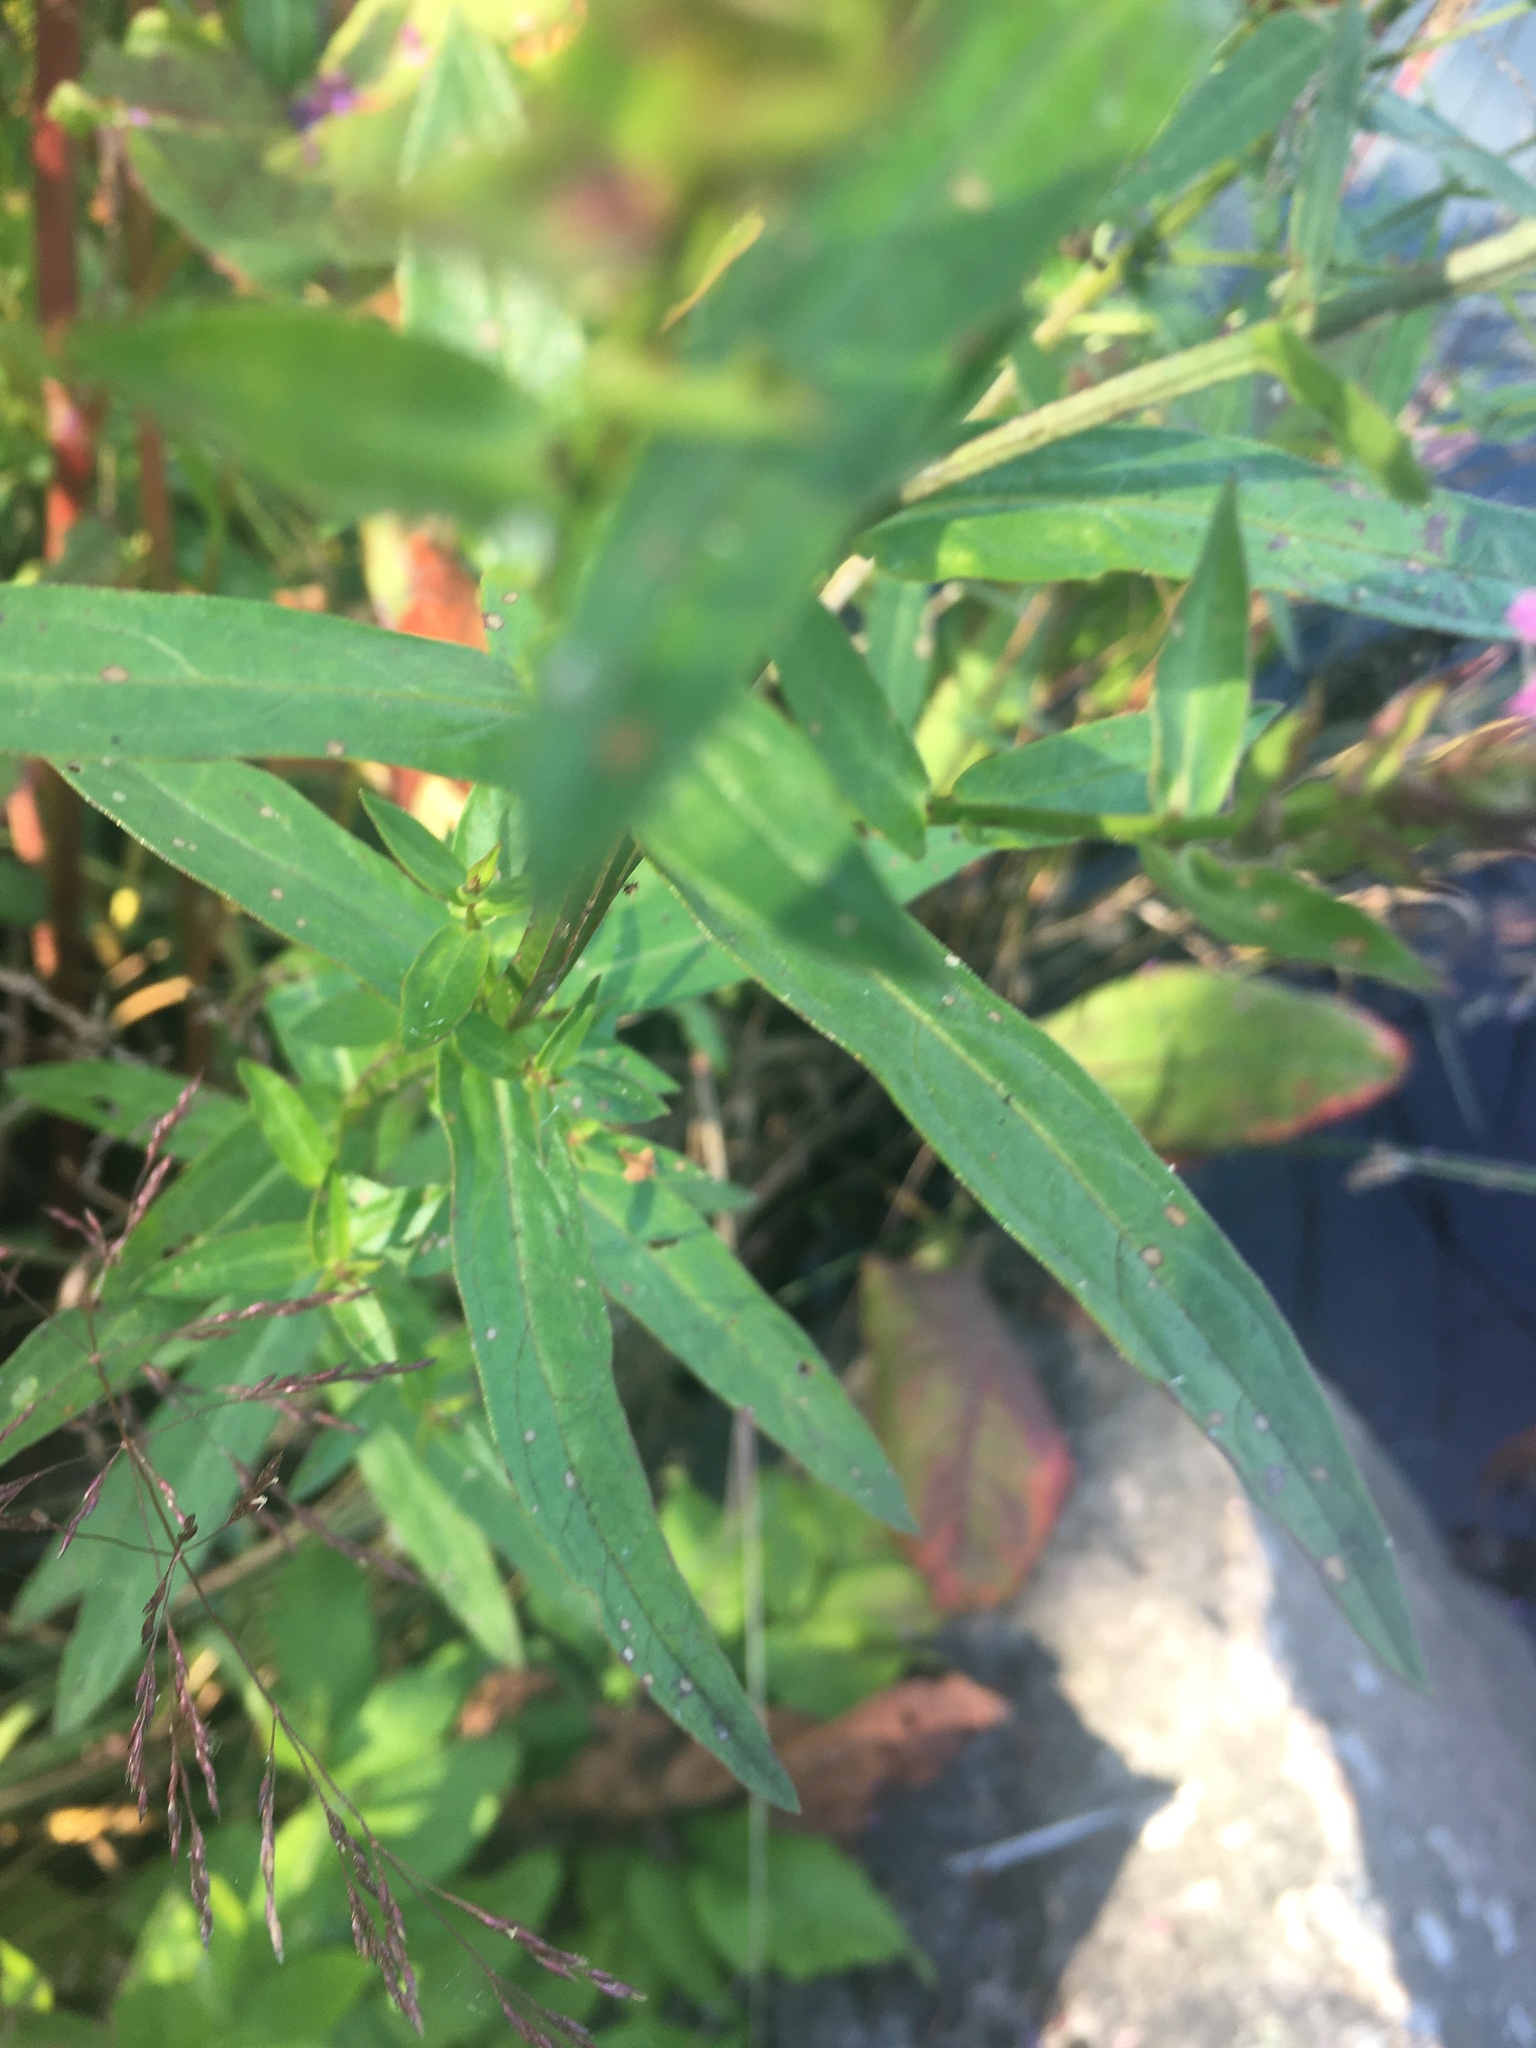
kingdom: Plantae
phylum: Tracheophyta
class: Magnoliopsida
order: Myrtales
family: Lythraceae
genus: Lythrum
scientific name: Lythrum salicaria
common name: Purple loosestrife
